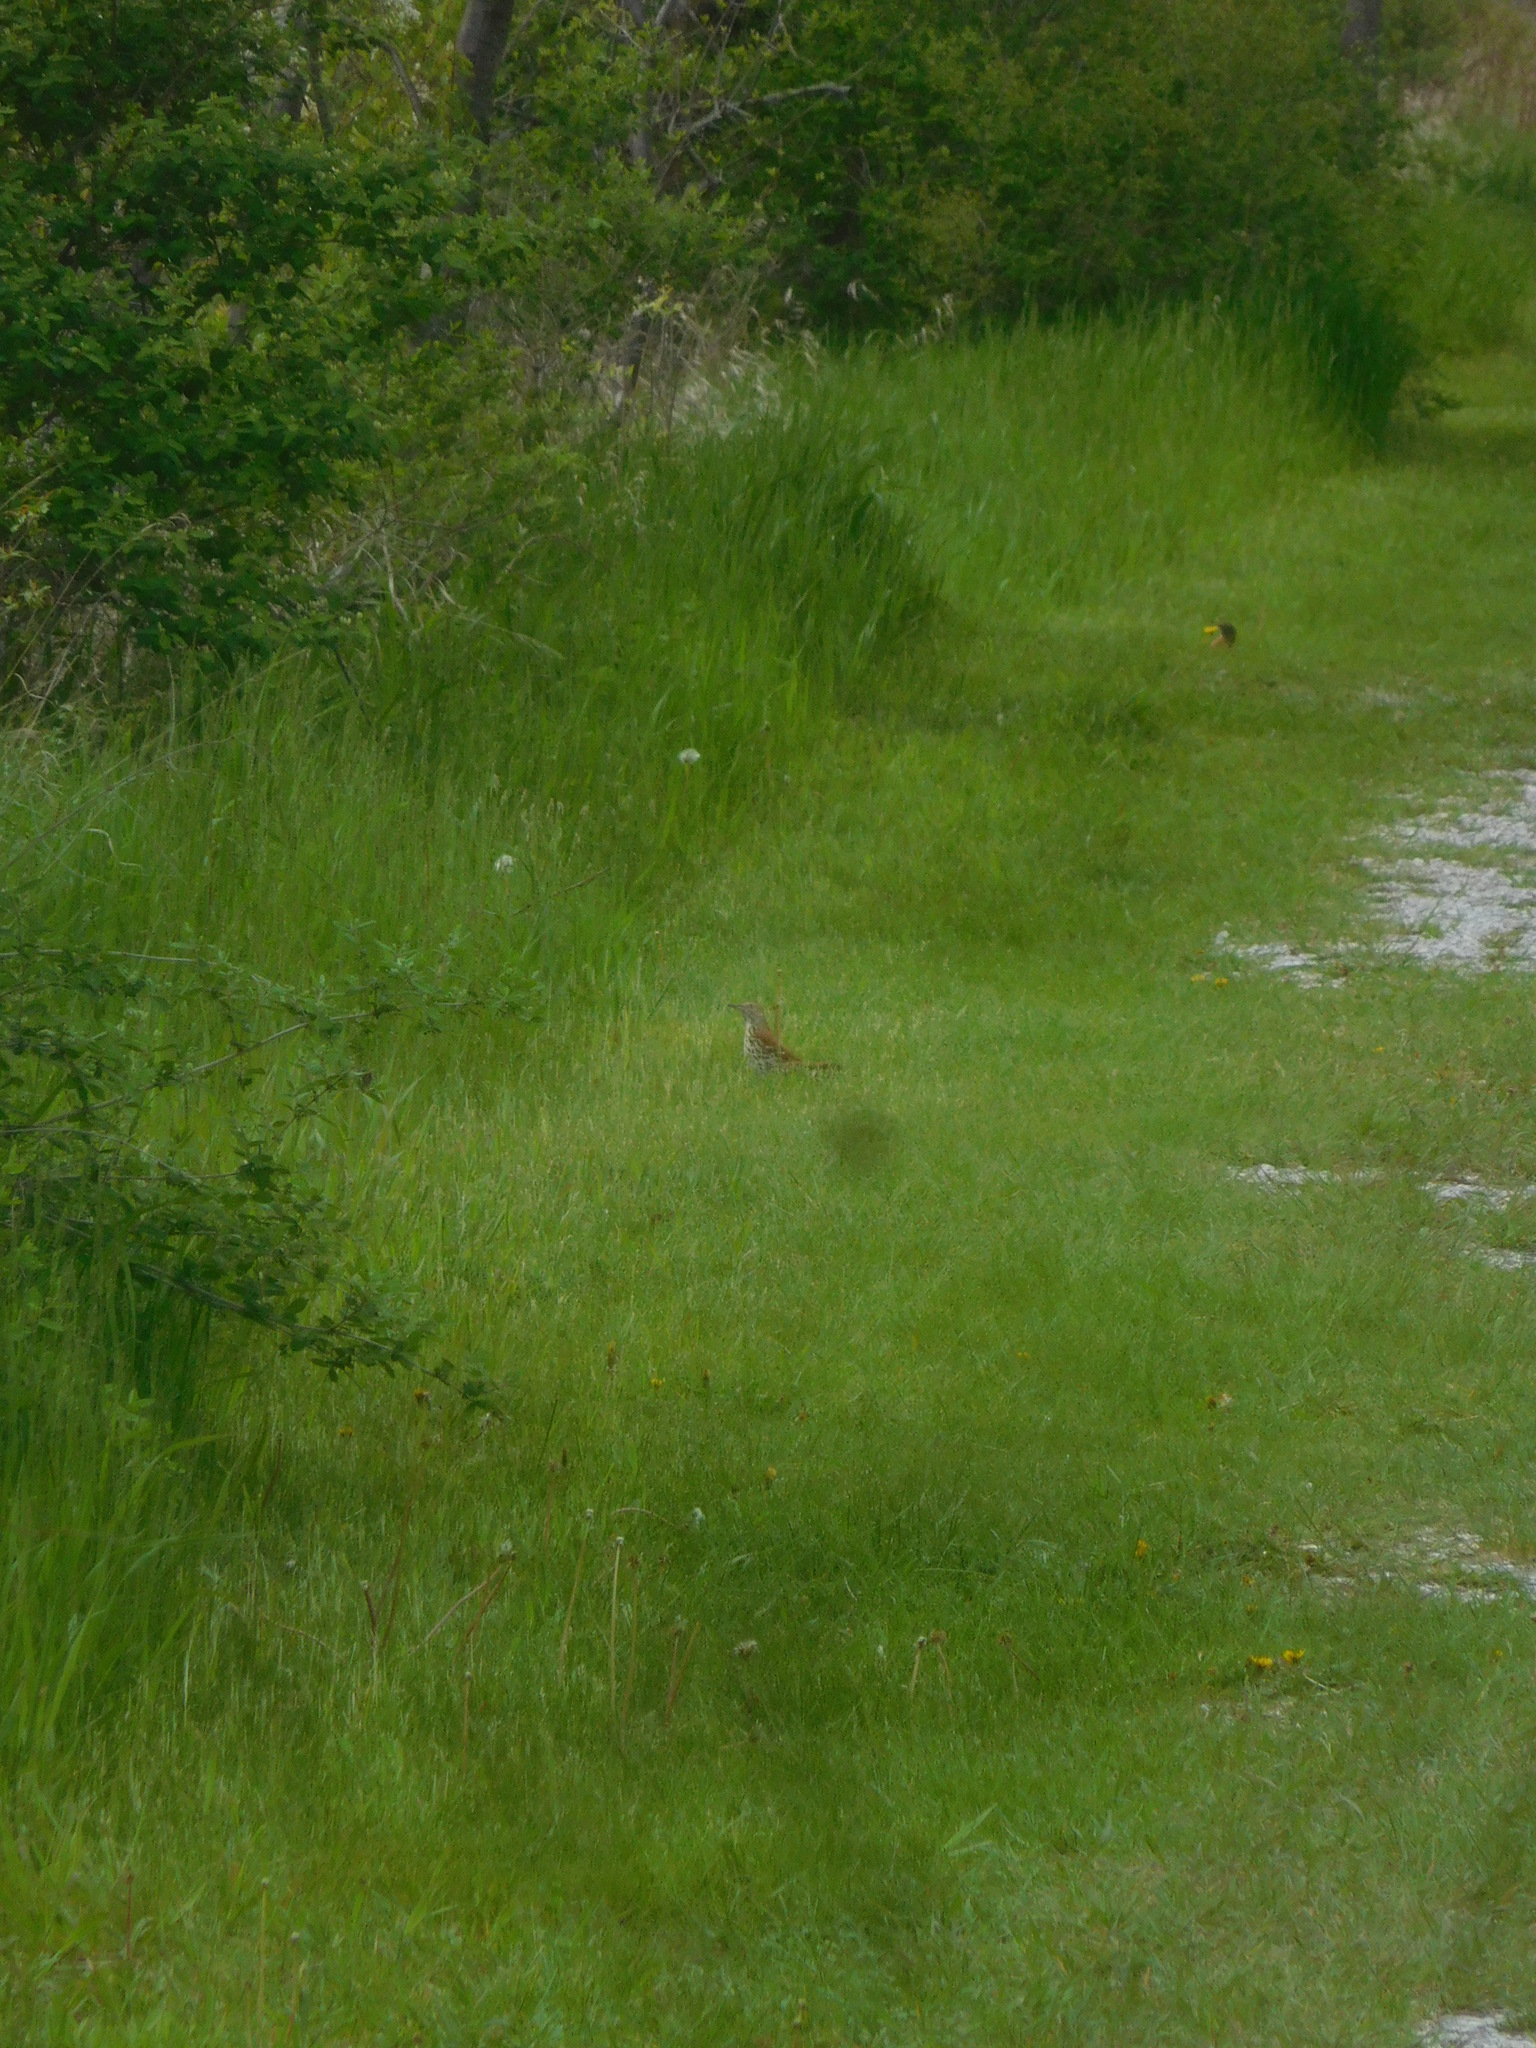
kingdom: Animalia
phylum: Chordata
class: Aves
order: Passeriformes
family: Mimidae
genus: Toxostoma
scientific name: Toxostoma rufum
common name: Brown thrasher
